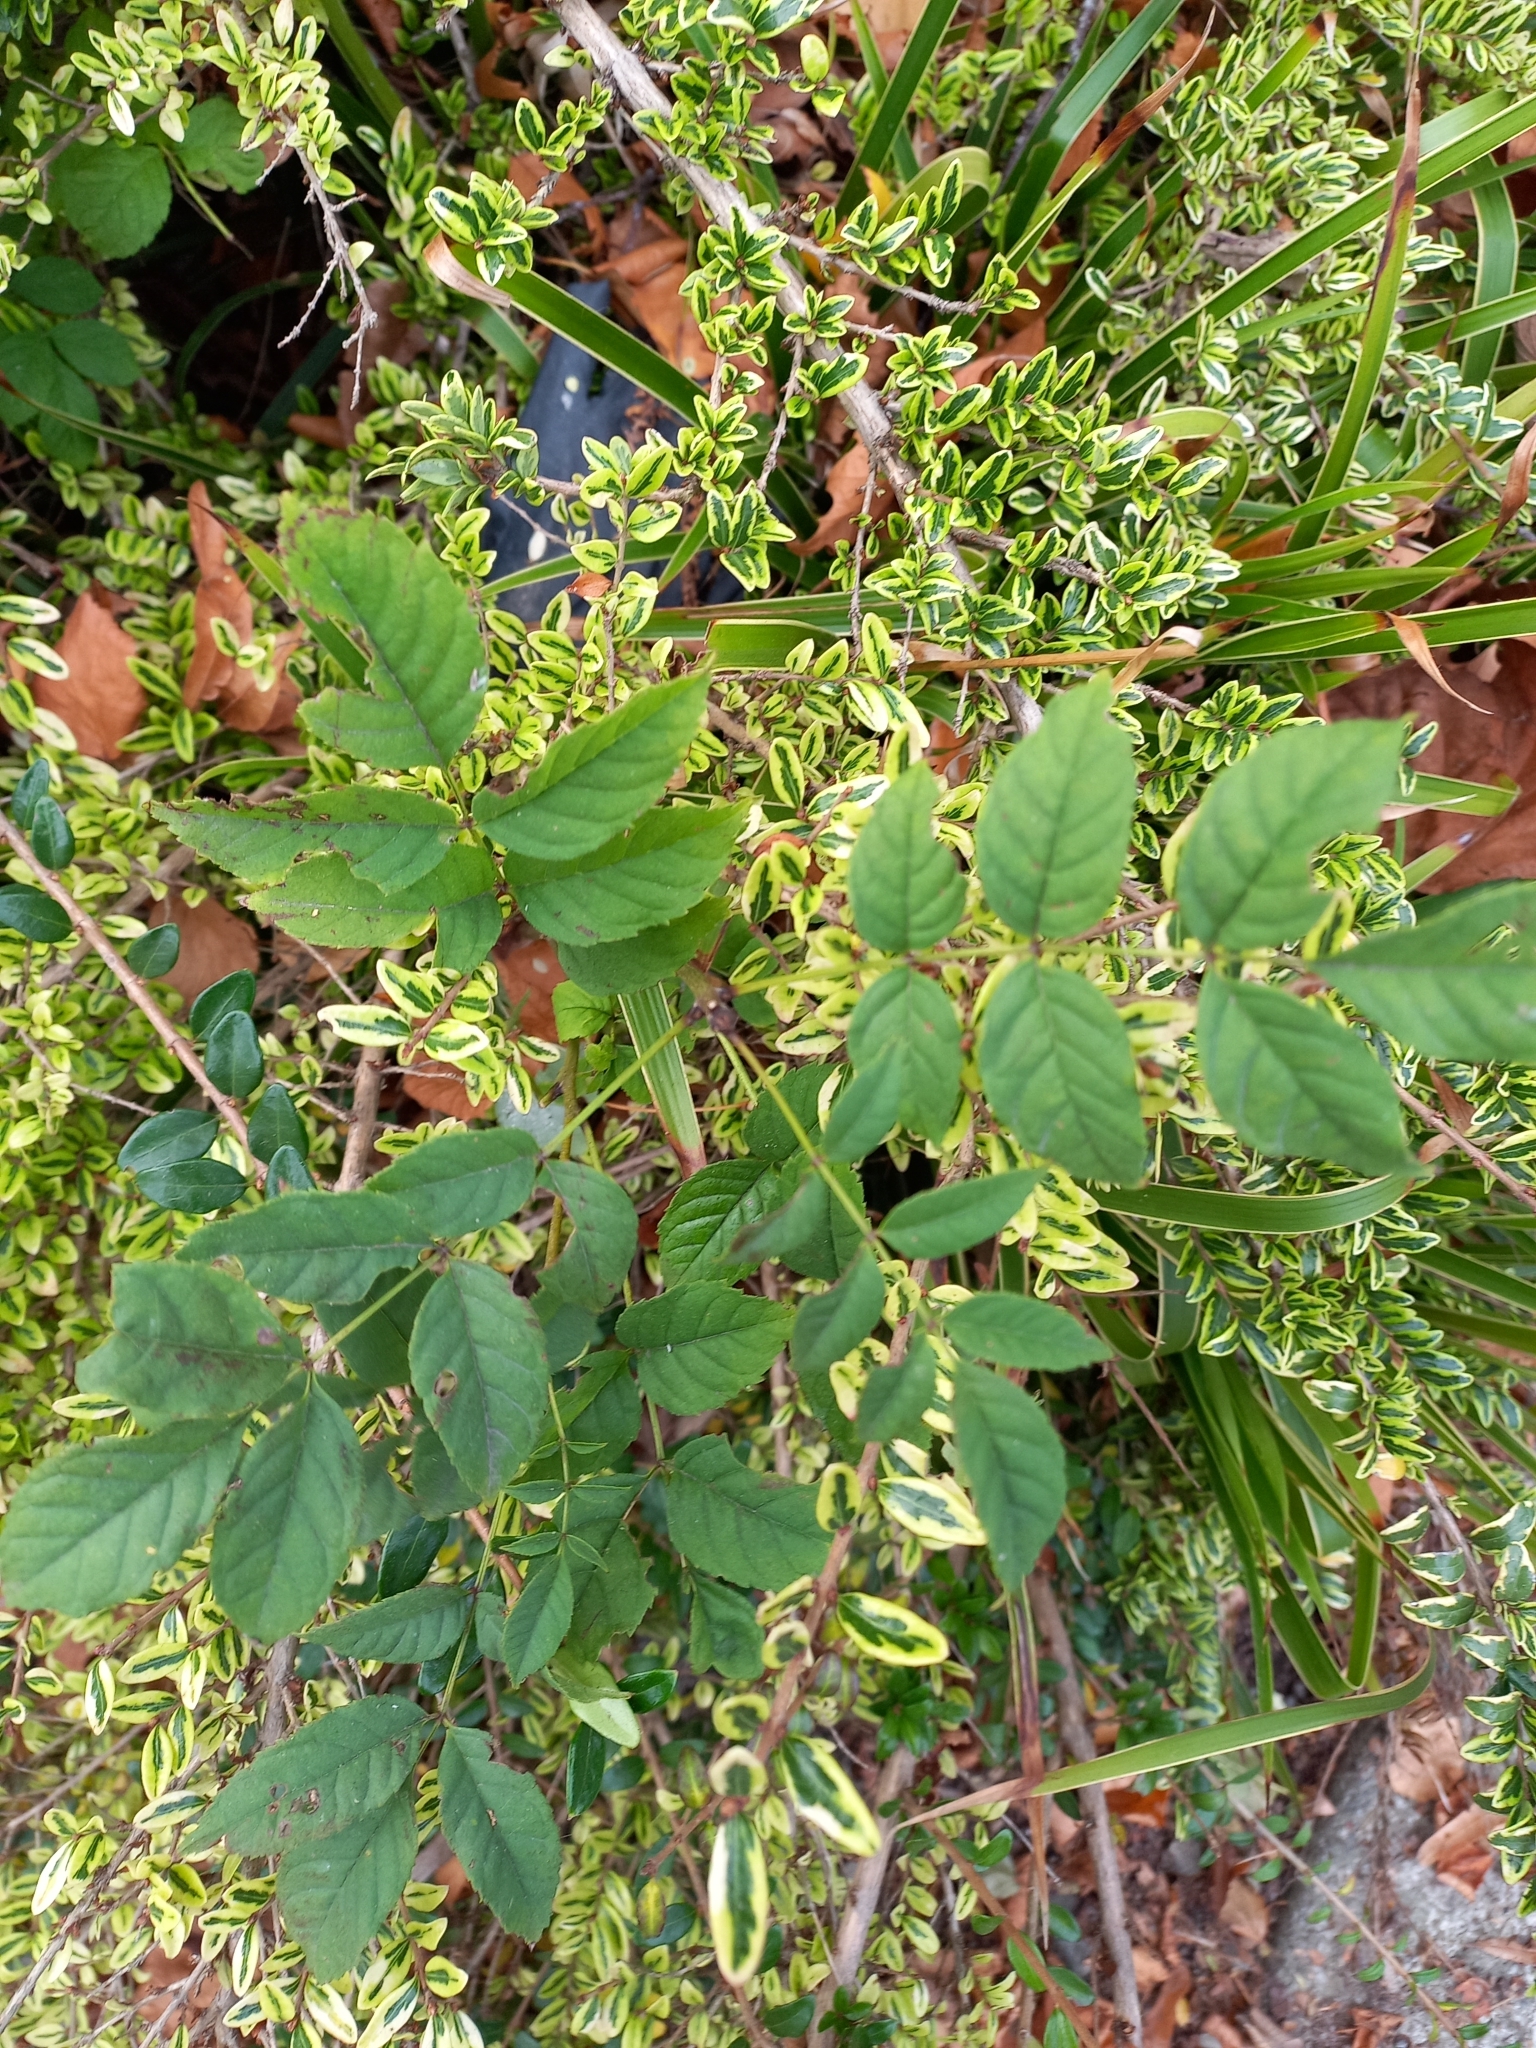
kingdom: Plantae
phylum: Tracheophyta
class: Magnoliopsida
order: Lamiales
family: Oleaceae
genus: Fraxinus
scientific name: Fraxinus excelsior
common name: European ash
